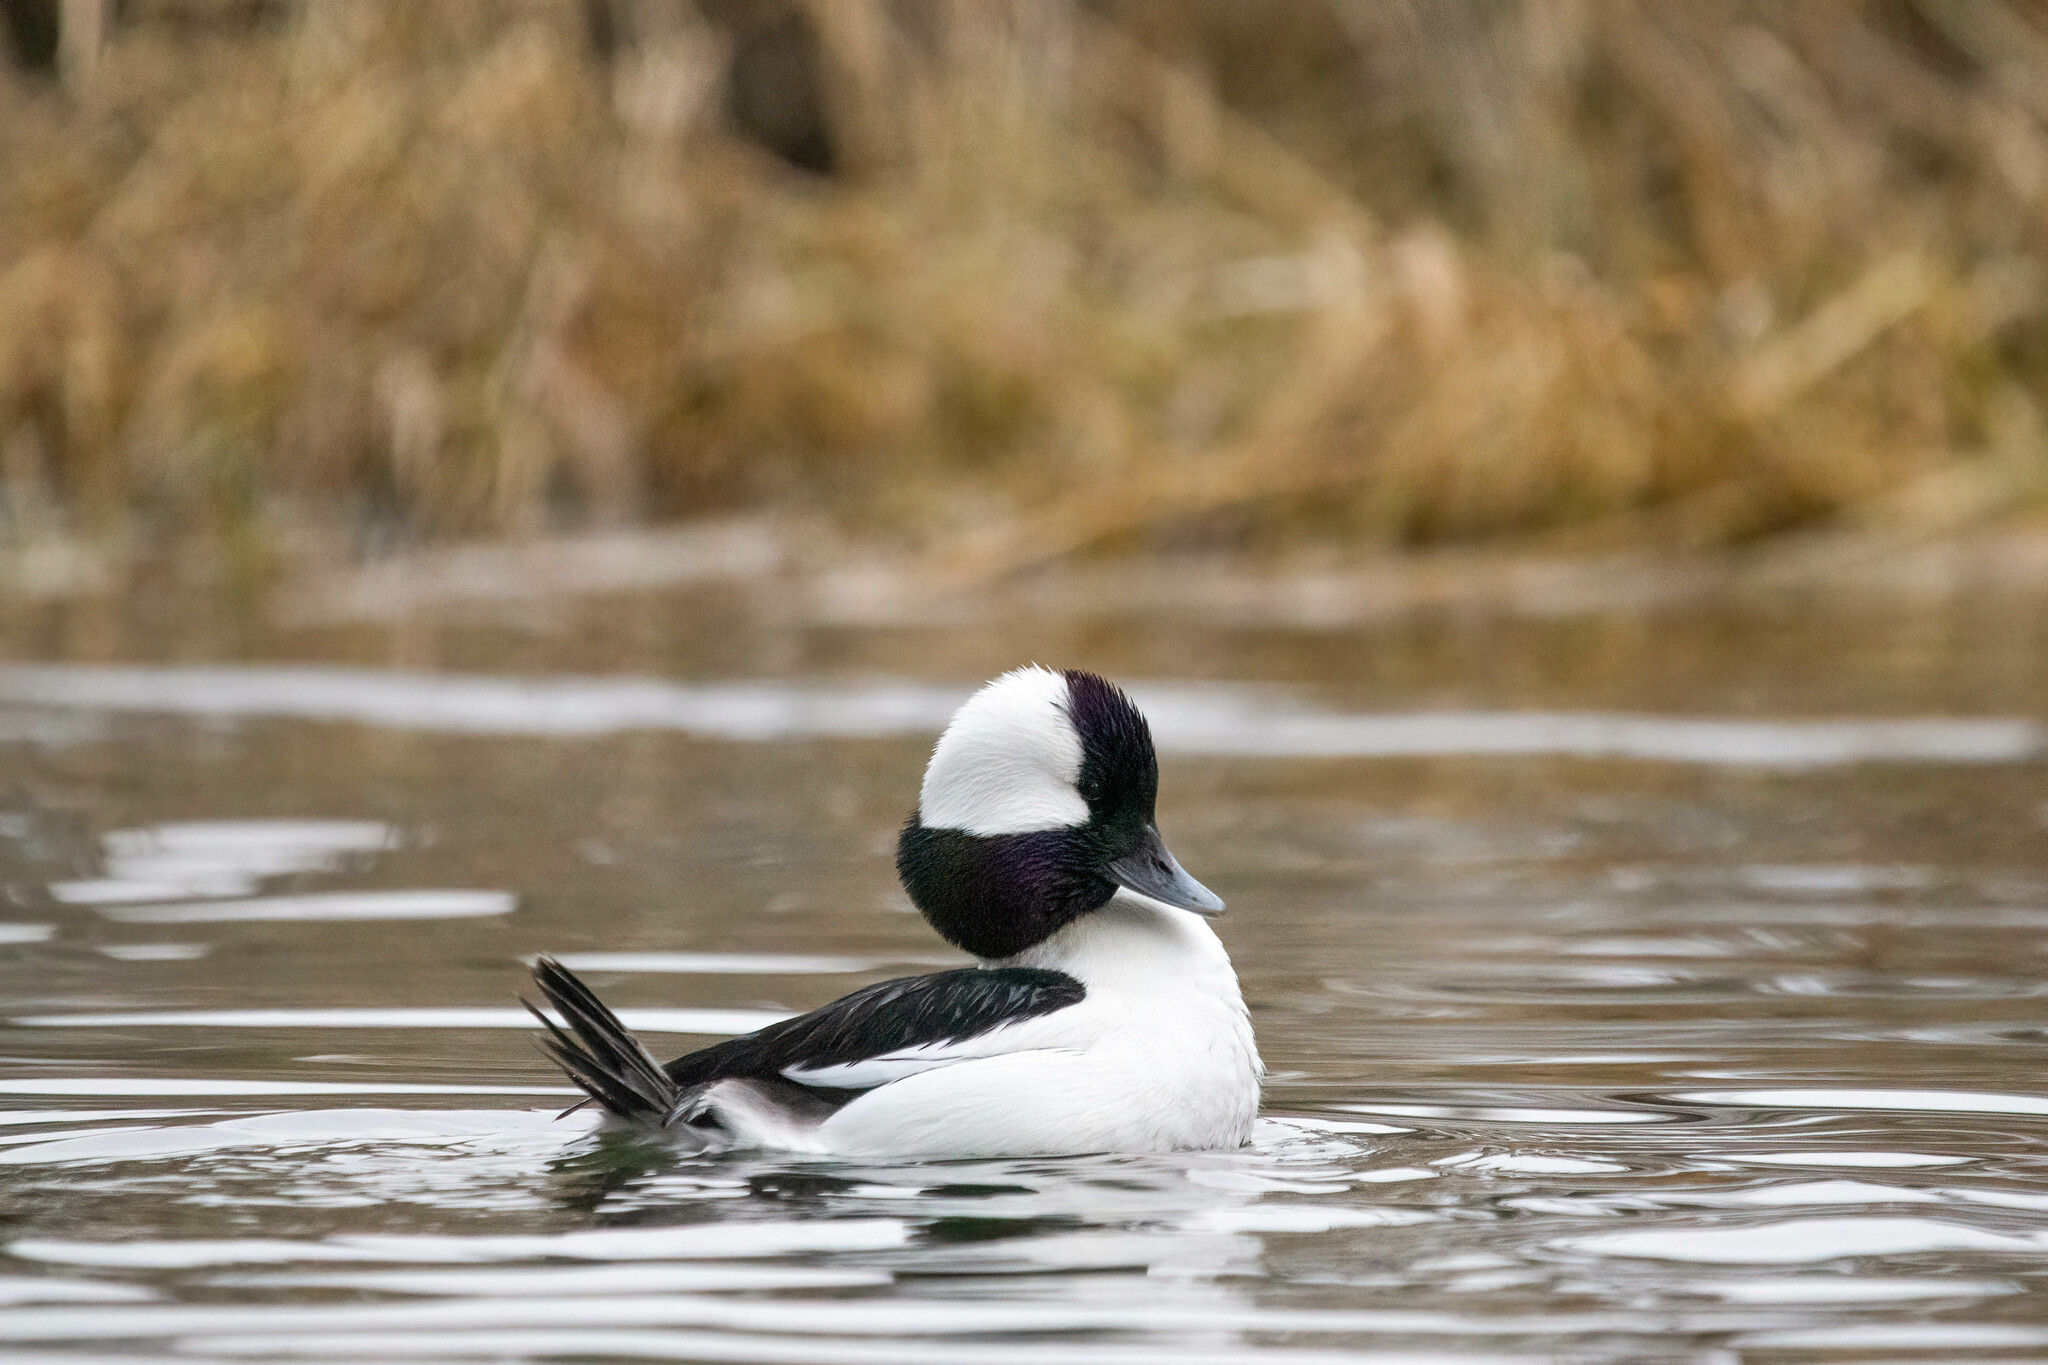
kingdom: Animalia
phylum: Chordata
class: Aves
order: Anseriformes
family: Anatidae
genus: Bucephala
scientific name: Bucephala albeola
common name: Bufflehead
